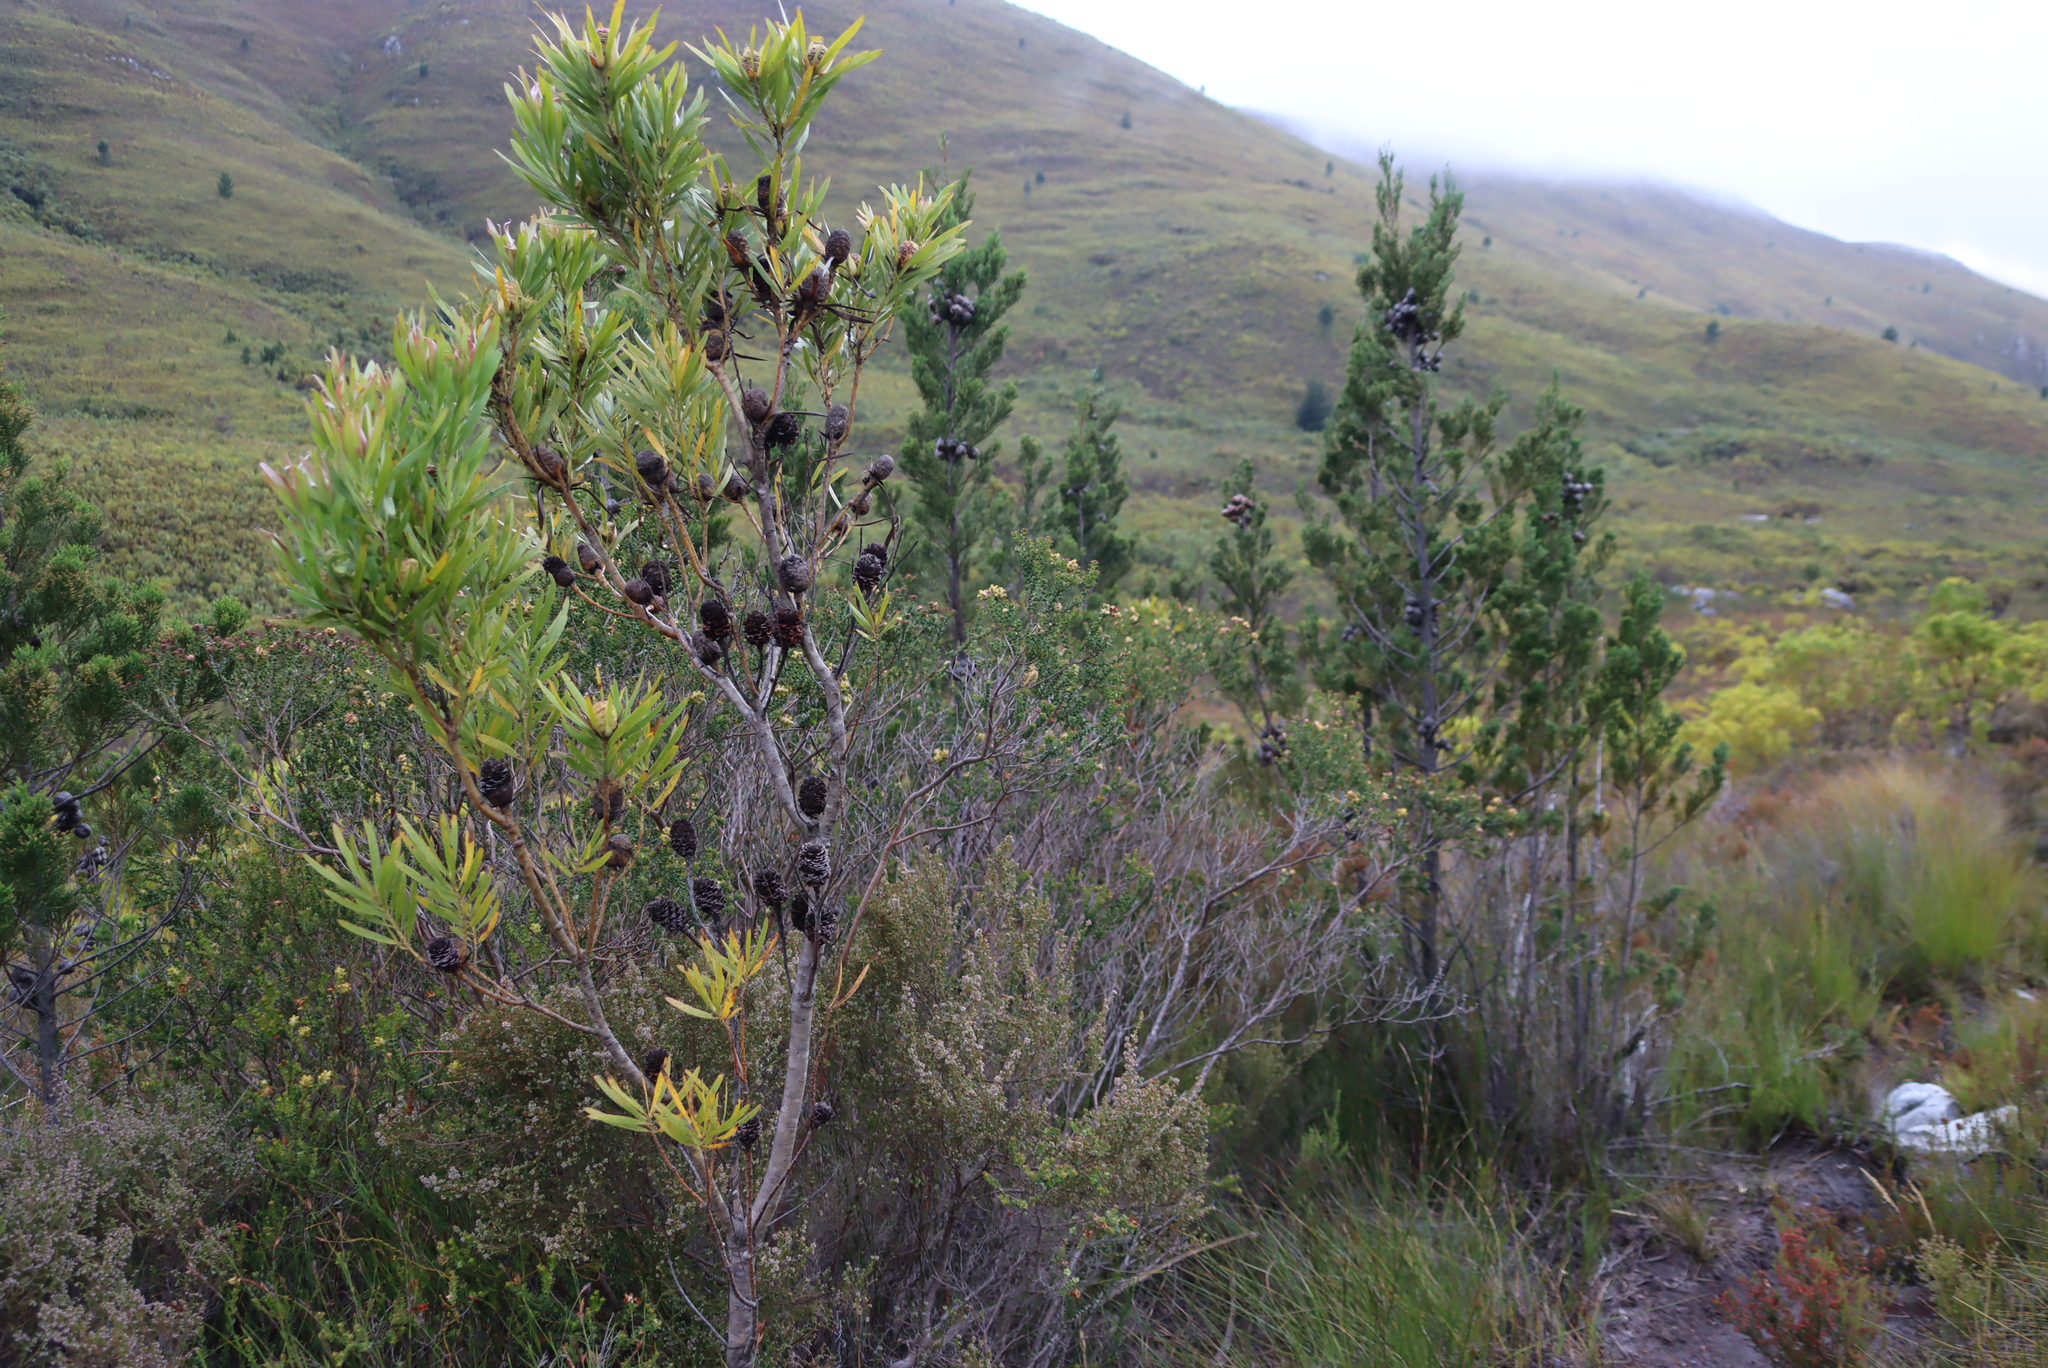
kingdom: Plantae
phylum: Tracheophyta
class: Pinopsida
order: Pinales
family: Cupressaceae
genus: Widdringtonia
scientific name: Widdringtonia nodiflora
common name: Cape cypress
